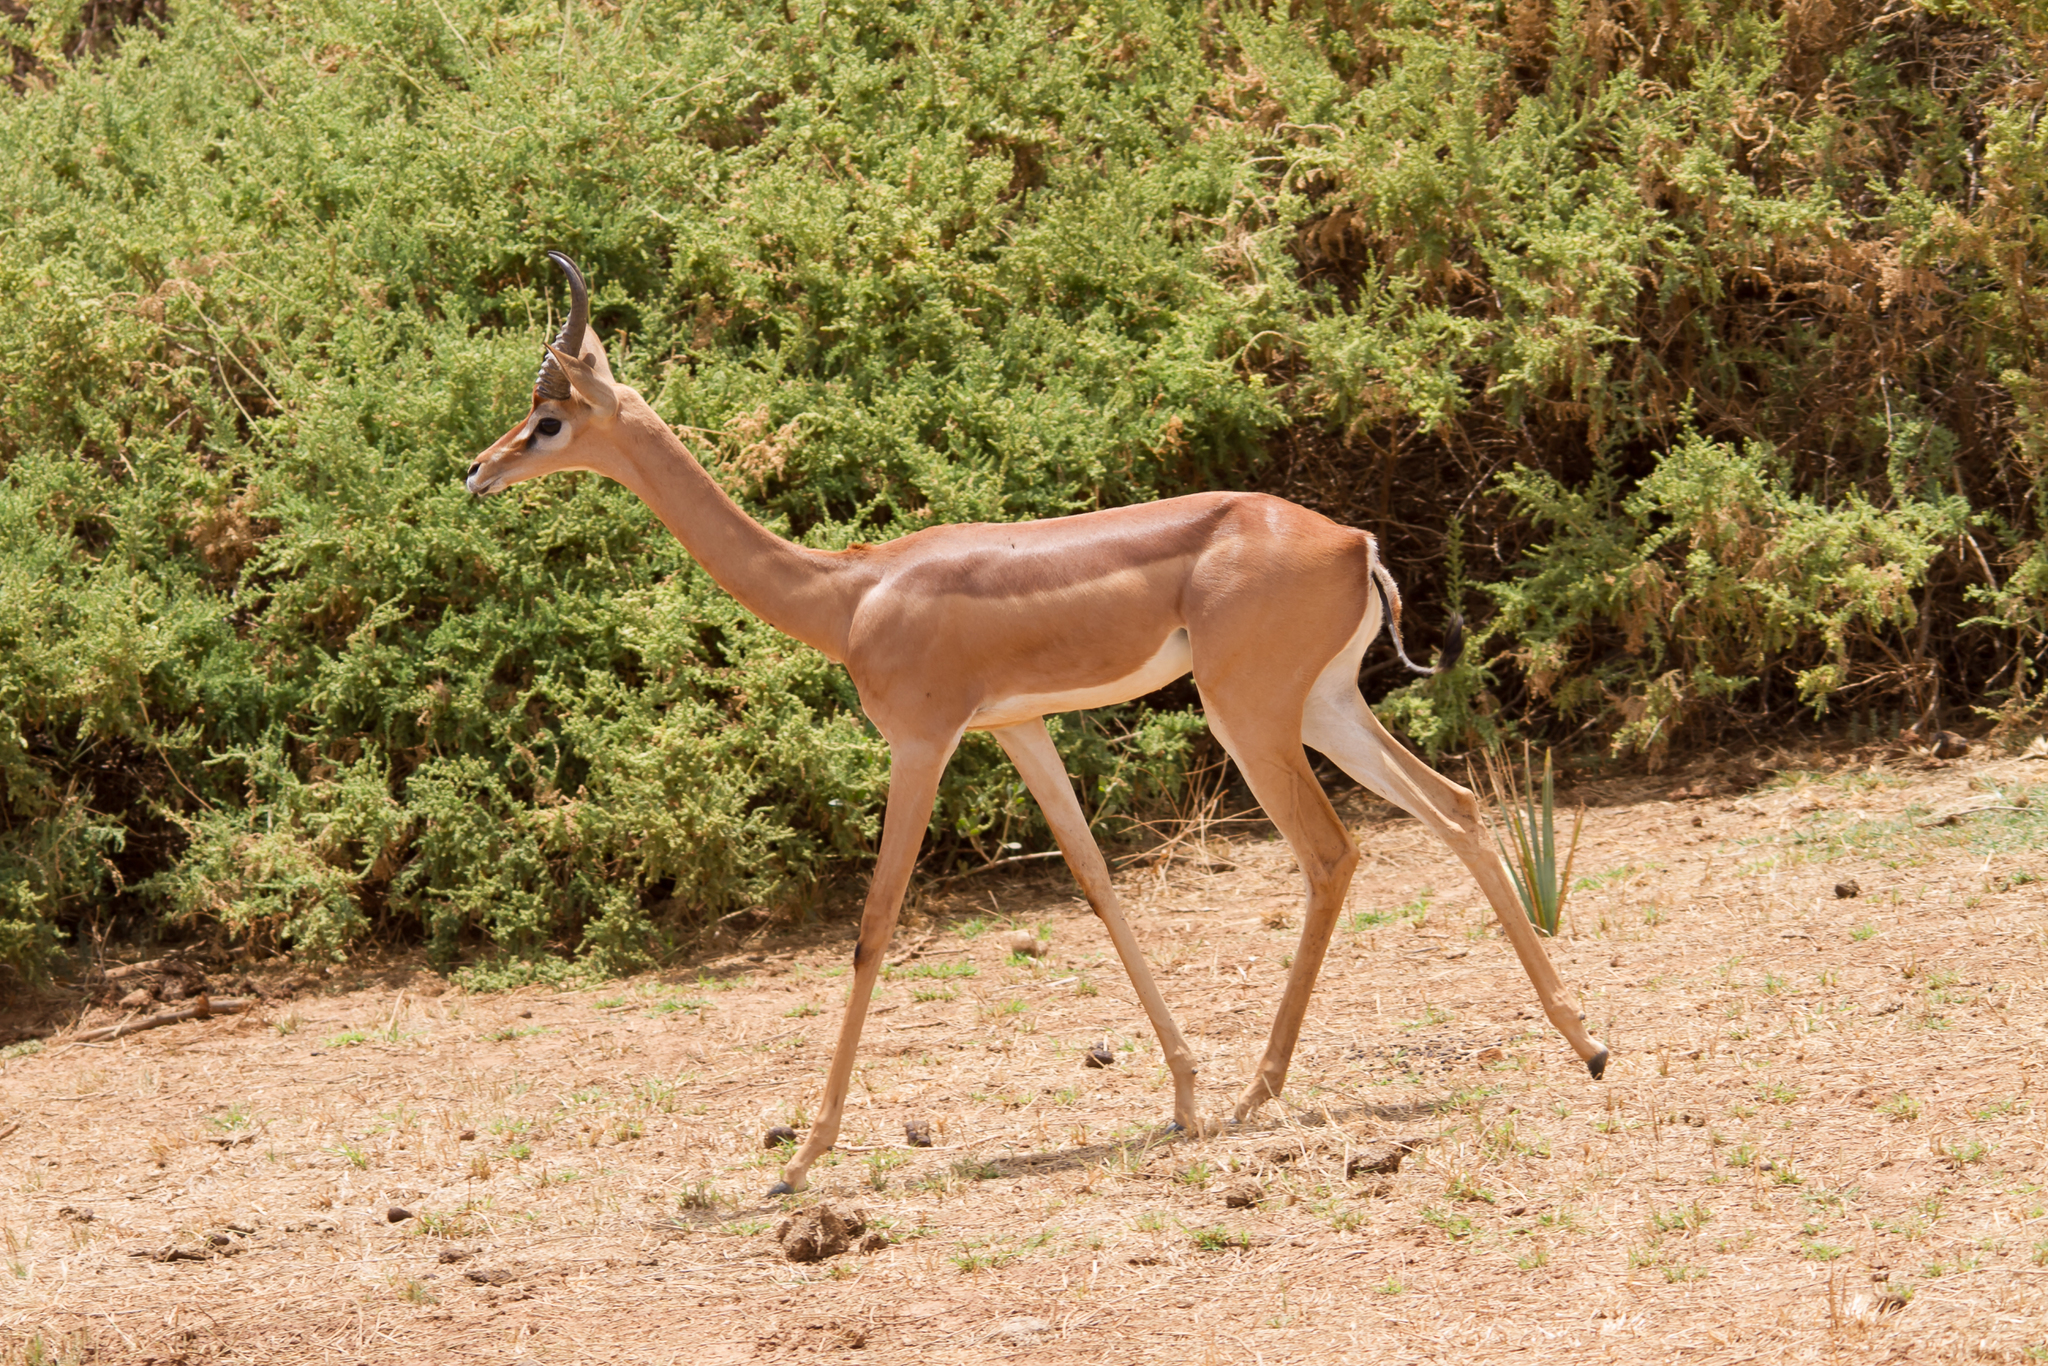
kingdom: Animalia
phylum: Chordata
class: Mammalia
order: Artiodactyla
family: Bovidae
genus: Litocranius
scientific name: Litocranius walleri
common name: Gerenuk
